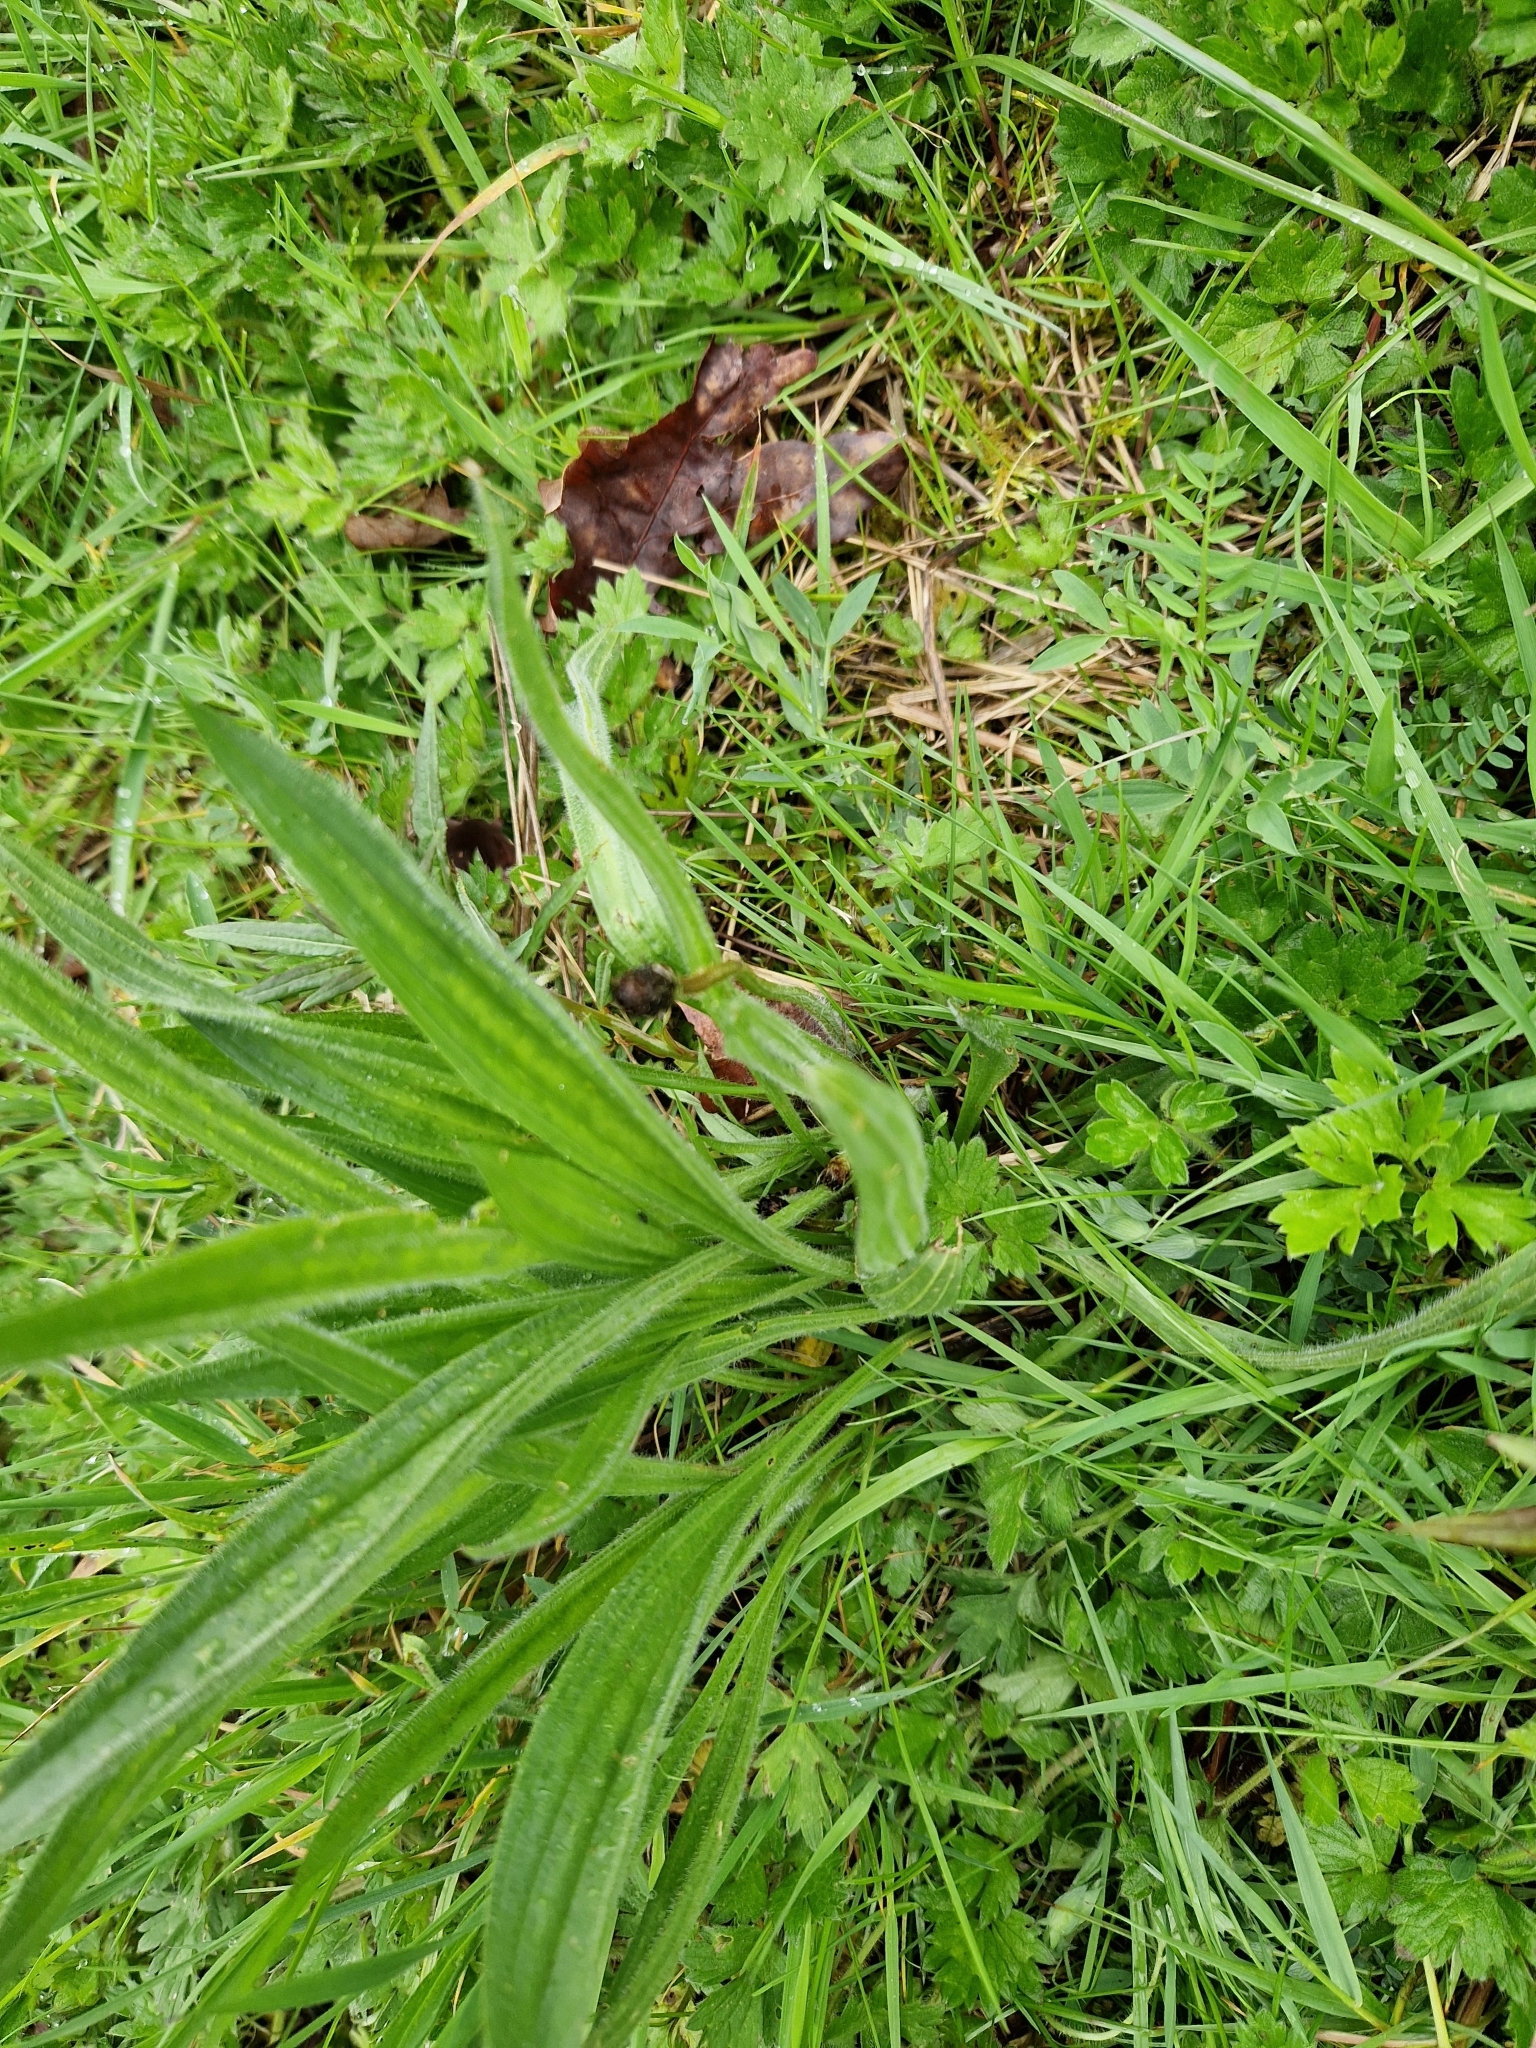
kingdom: Plantae
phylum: Tracheophyta
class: Magnoliopsida
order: Lamiales
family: Plantaginaceae
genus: Plantago
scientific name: Plantago lanceolata
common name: Ribwort plantain
